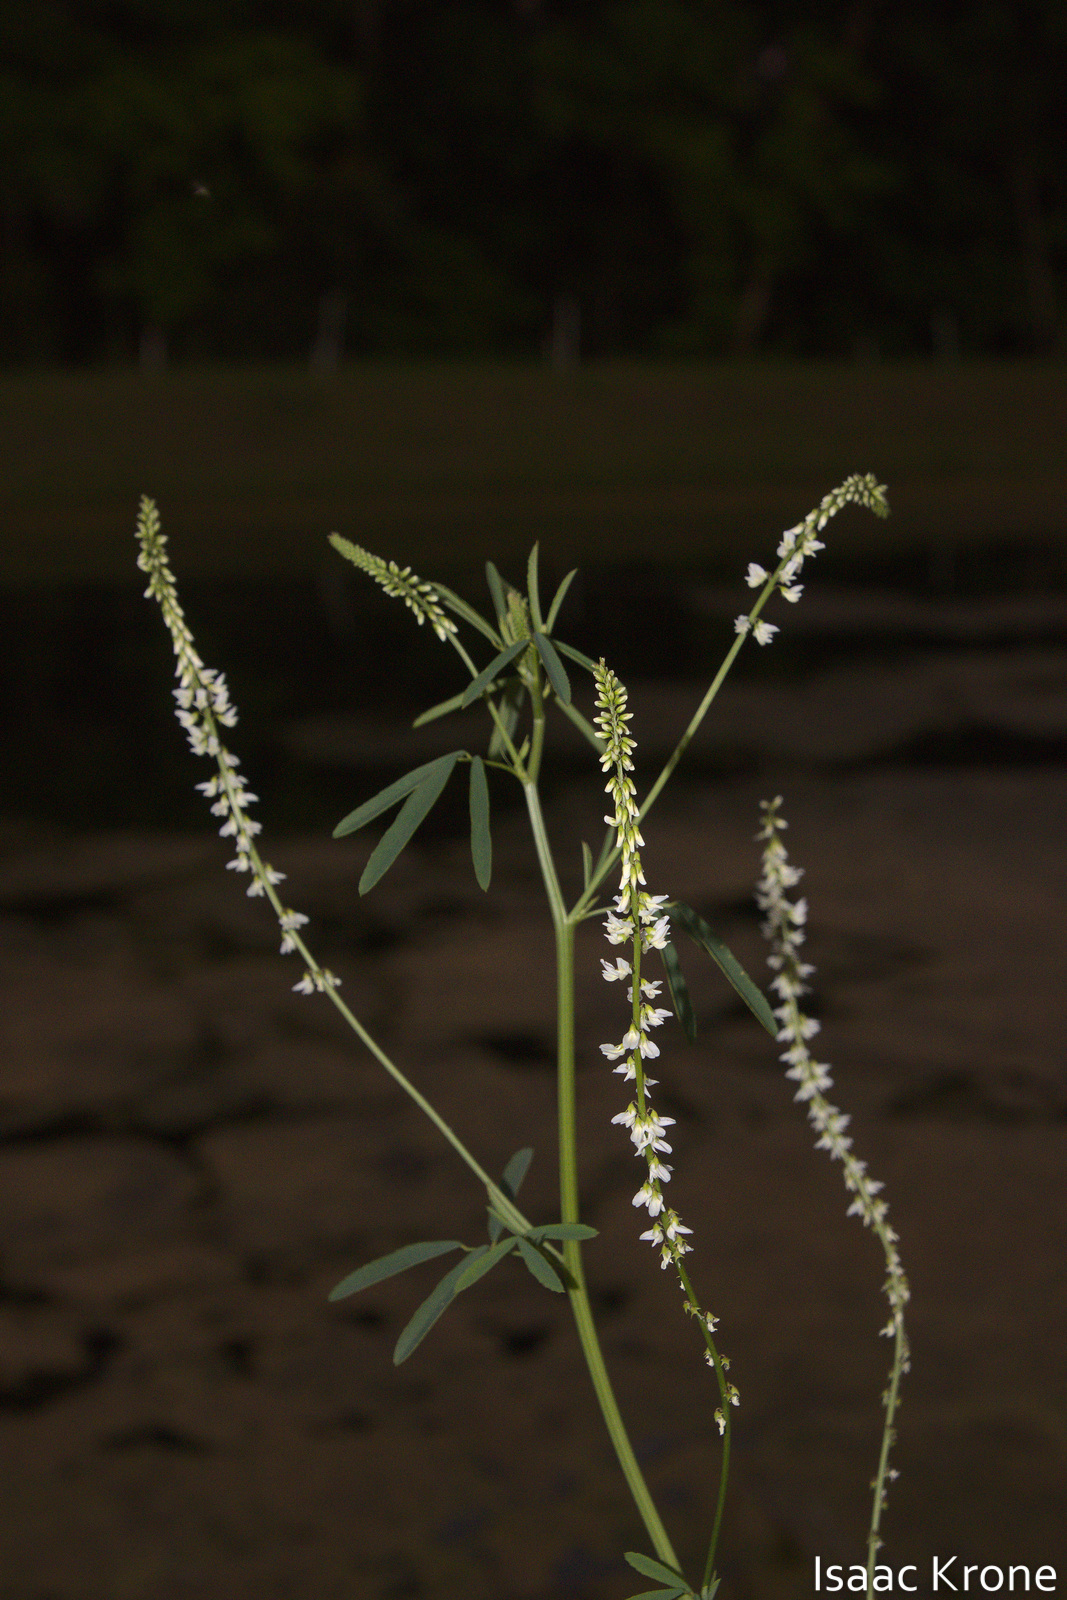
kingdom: Plantae
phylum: Tracheophyta
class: Magnoliopsida
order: Fabales
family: Fabaceae
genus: Melilotus
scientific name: Melilotus albus
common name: White melilot
